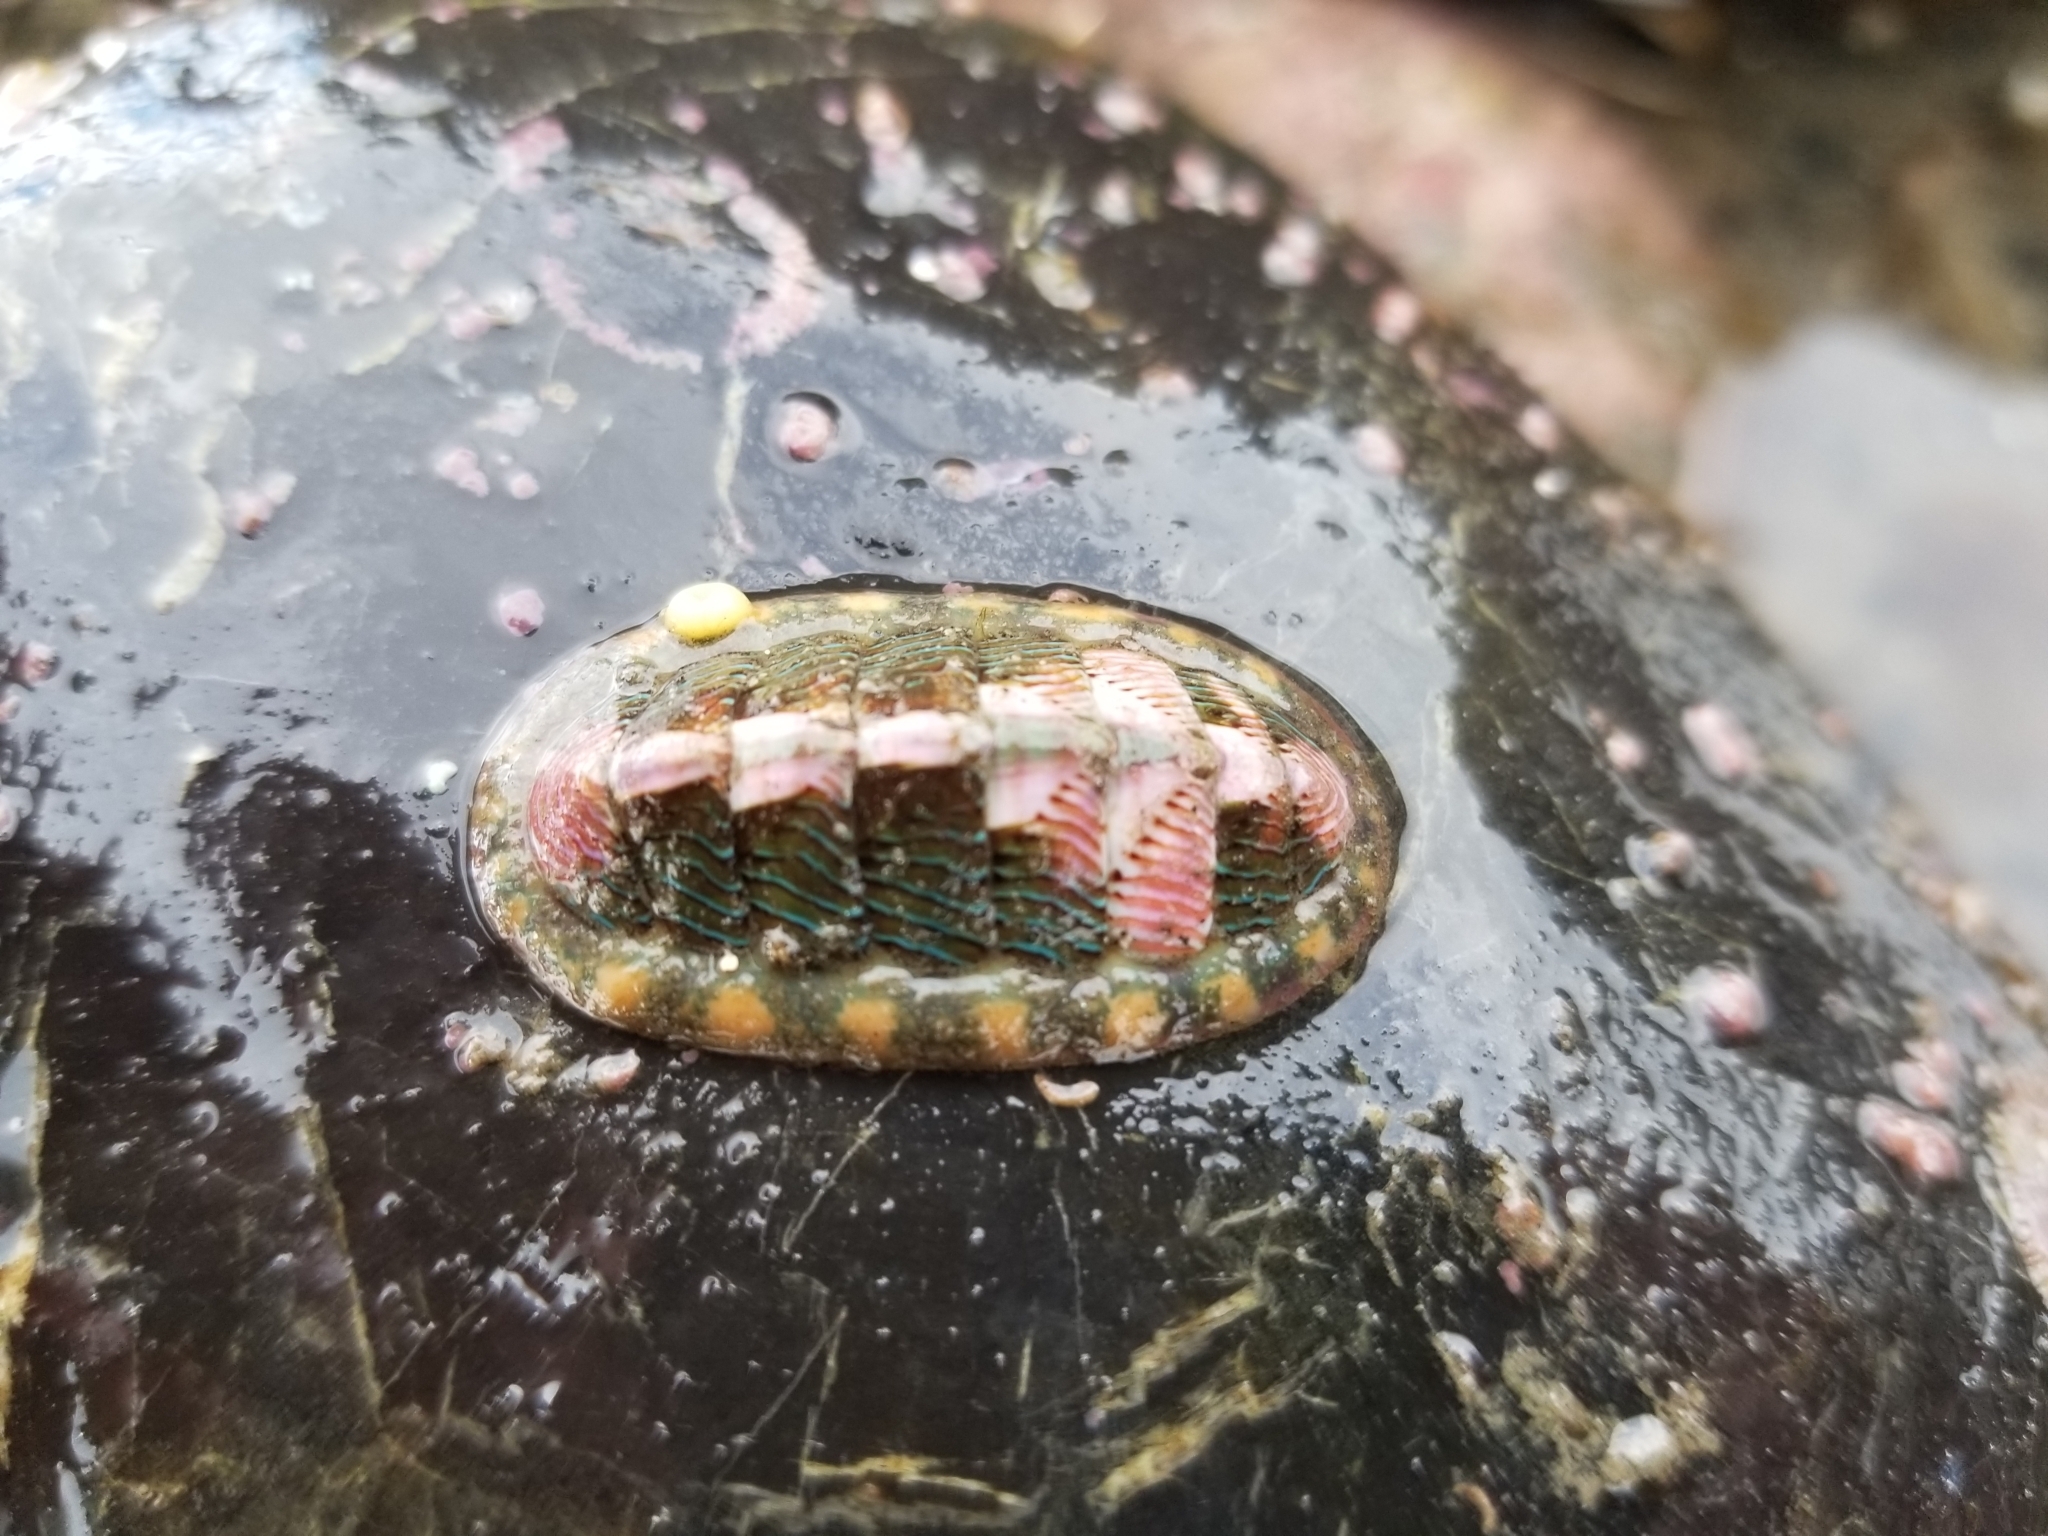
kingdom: Animalia
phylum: Mollusca
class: Polyplacophora
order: Chitonida
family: Tonicellidae
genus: Tonicella
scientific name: Tonicella lineata
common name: Lined chiton
